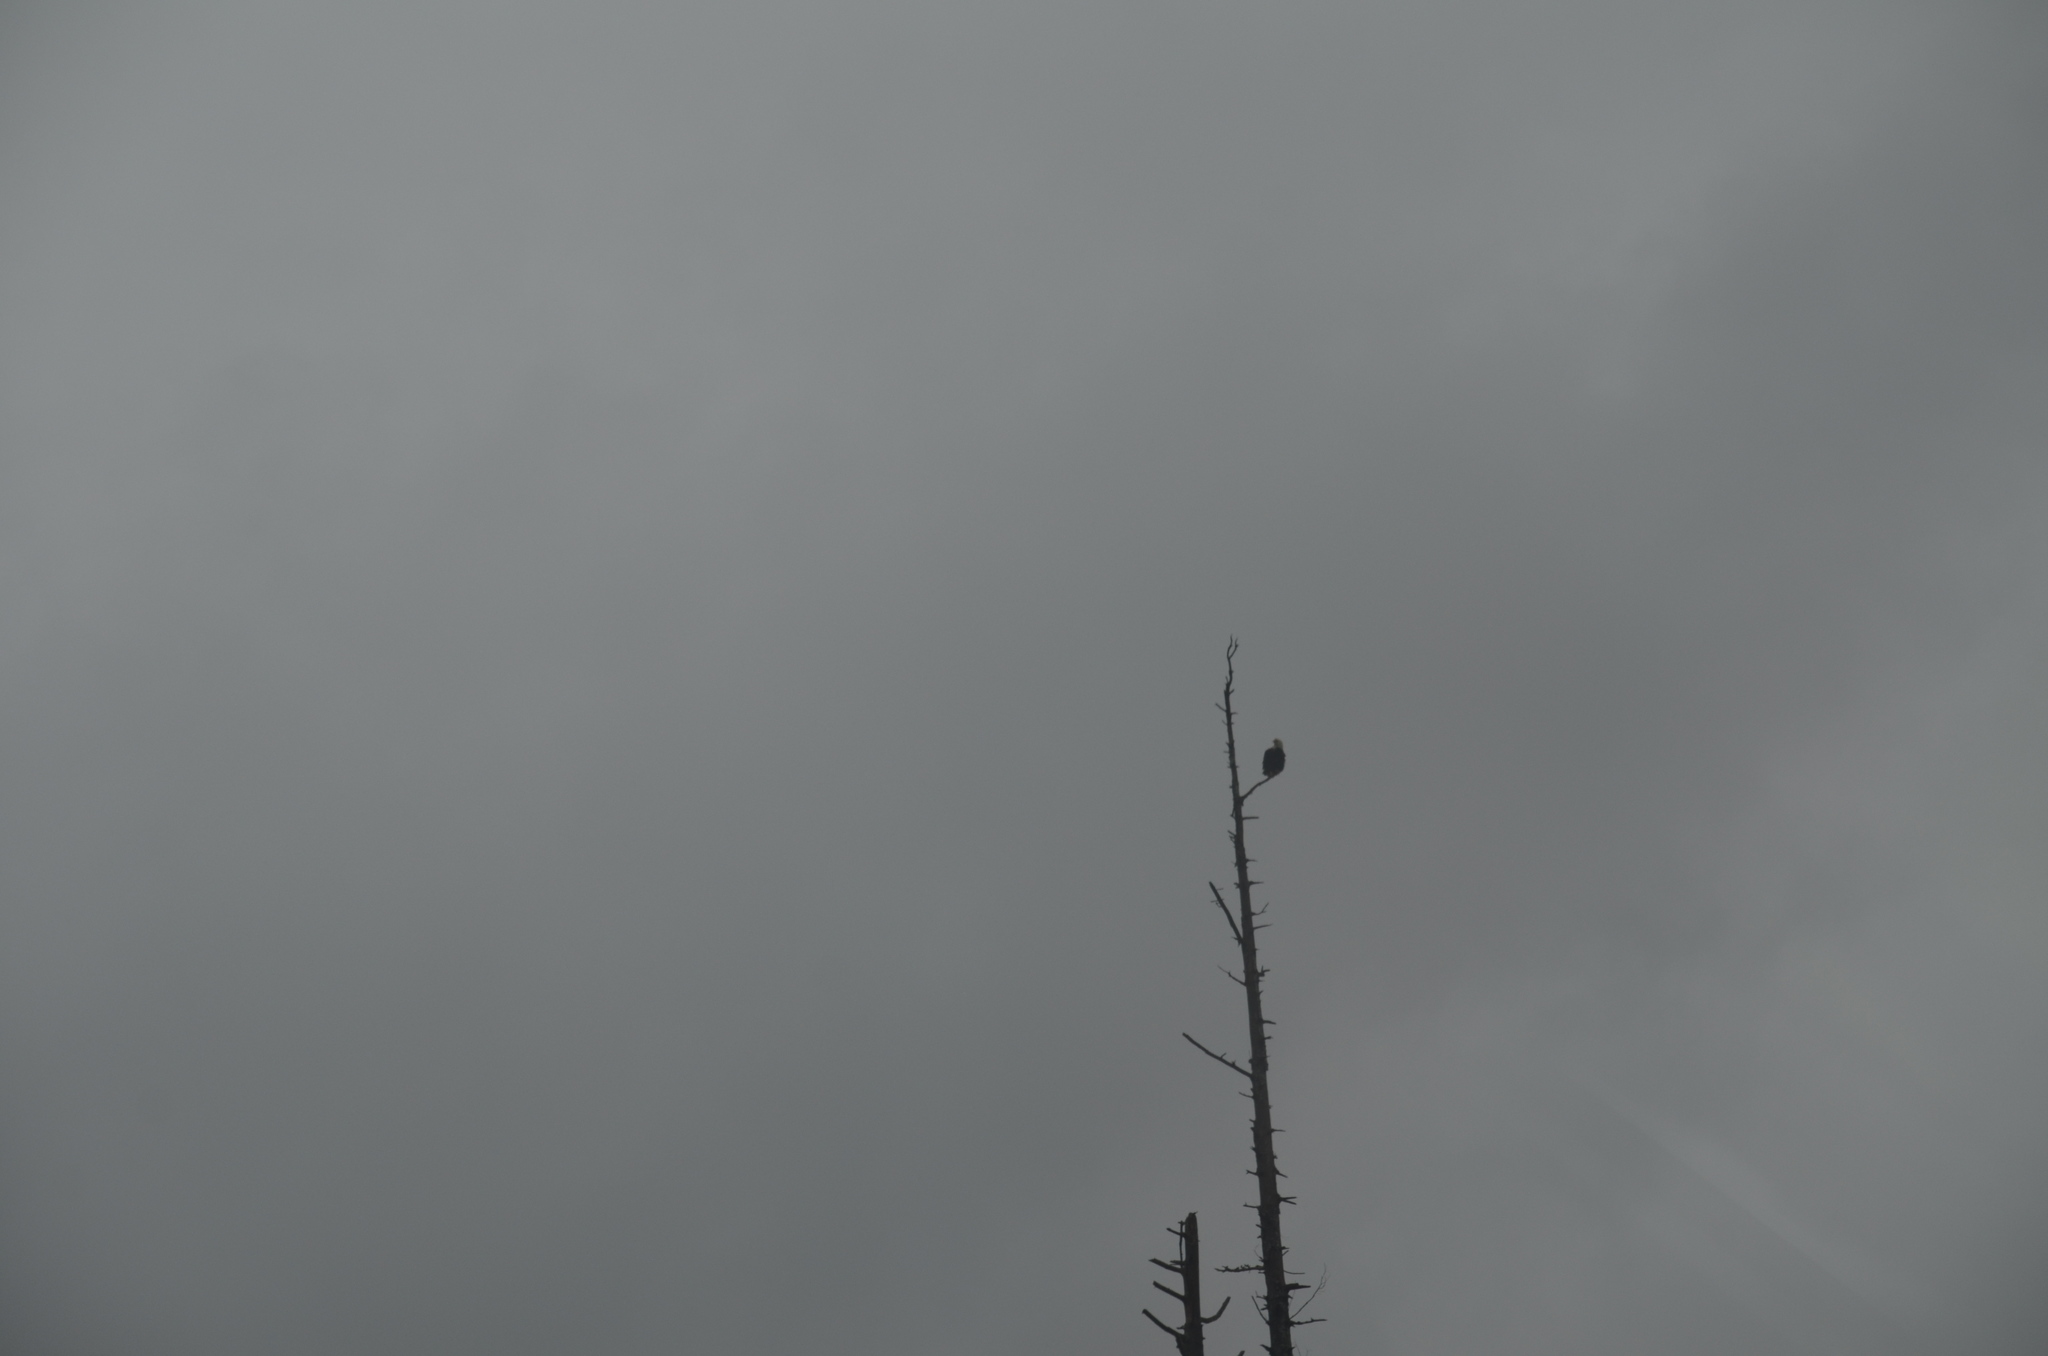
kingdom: Animalia
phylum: Chordata
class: Aves
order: Accipitriformes
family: Accipitridae
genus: Haliaeetus
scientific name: Haliaeetus leucocephalus
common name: Bald eagle
